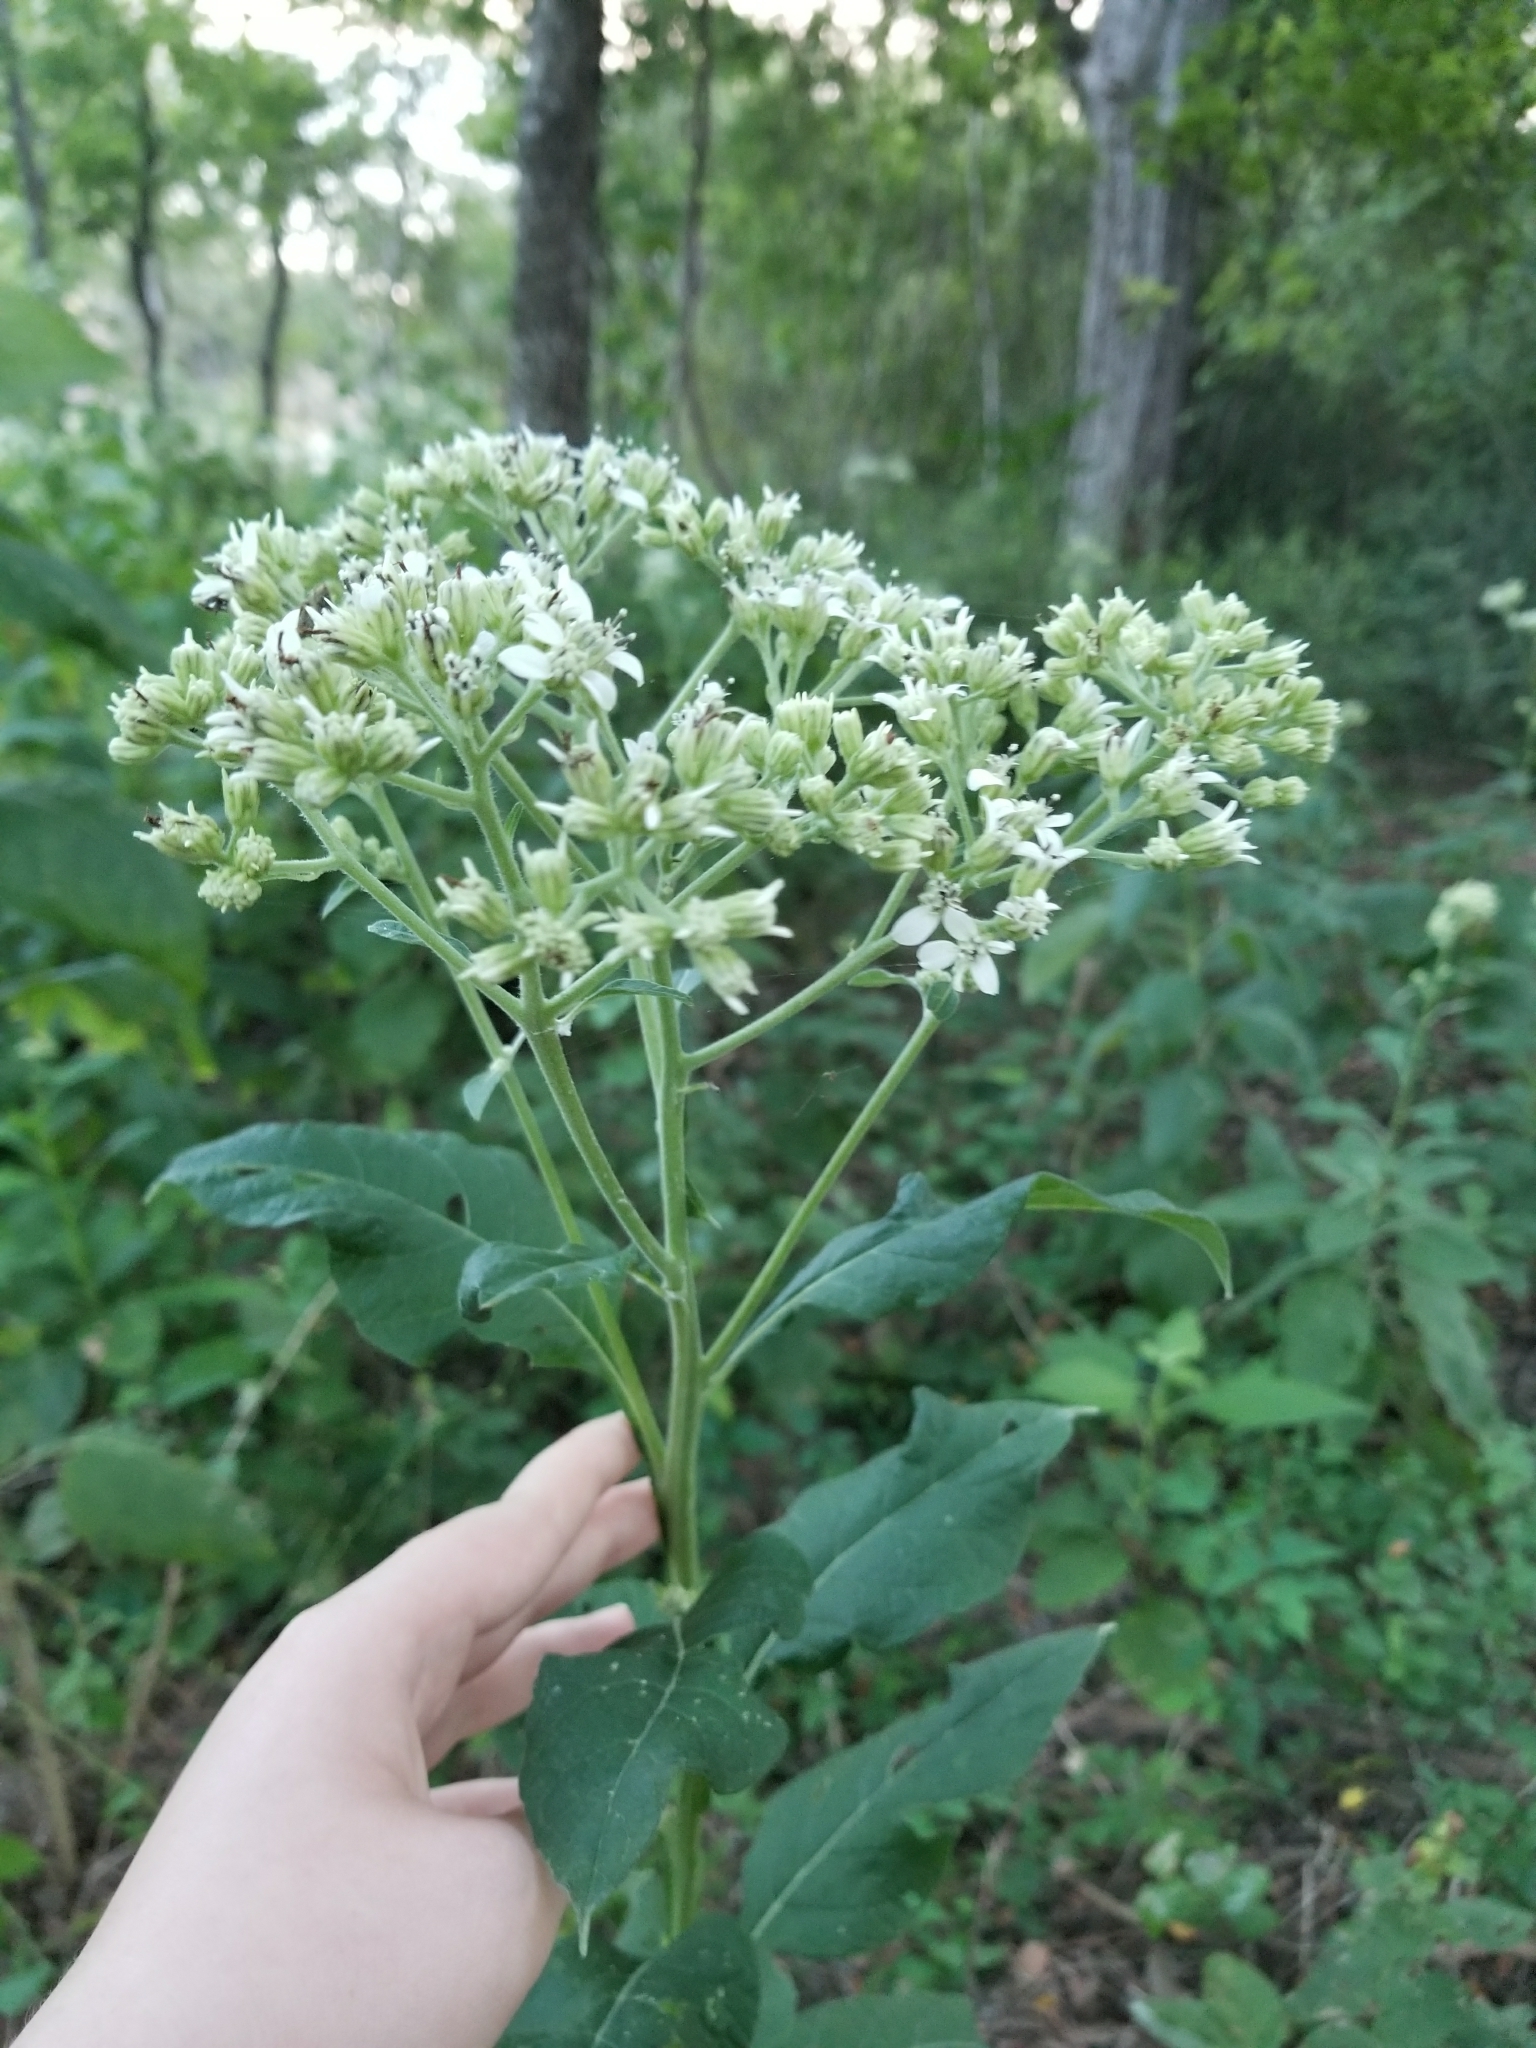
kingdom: Plantae
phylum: Tracheophyta
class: Magnoliopsida
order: Asterales
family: Asteraceae
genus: Verbesina
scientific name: Verbesina virginica
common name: Frostweed
